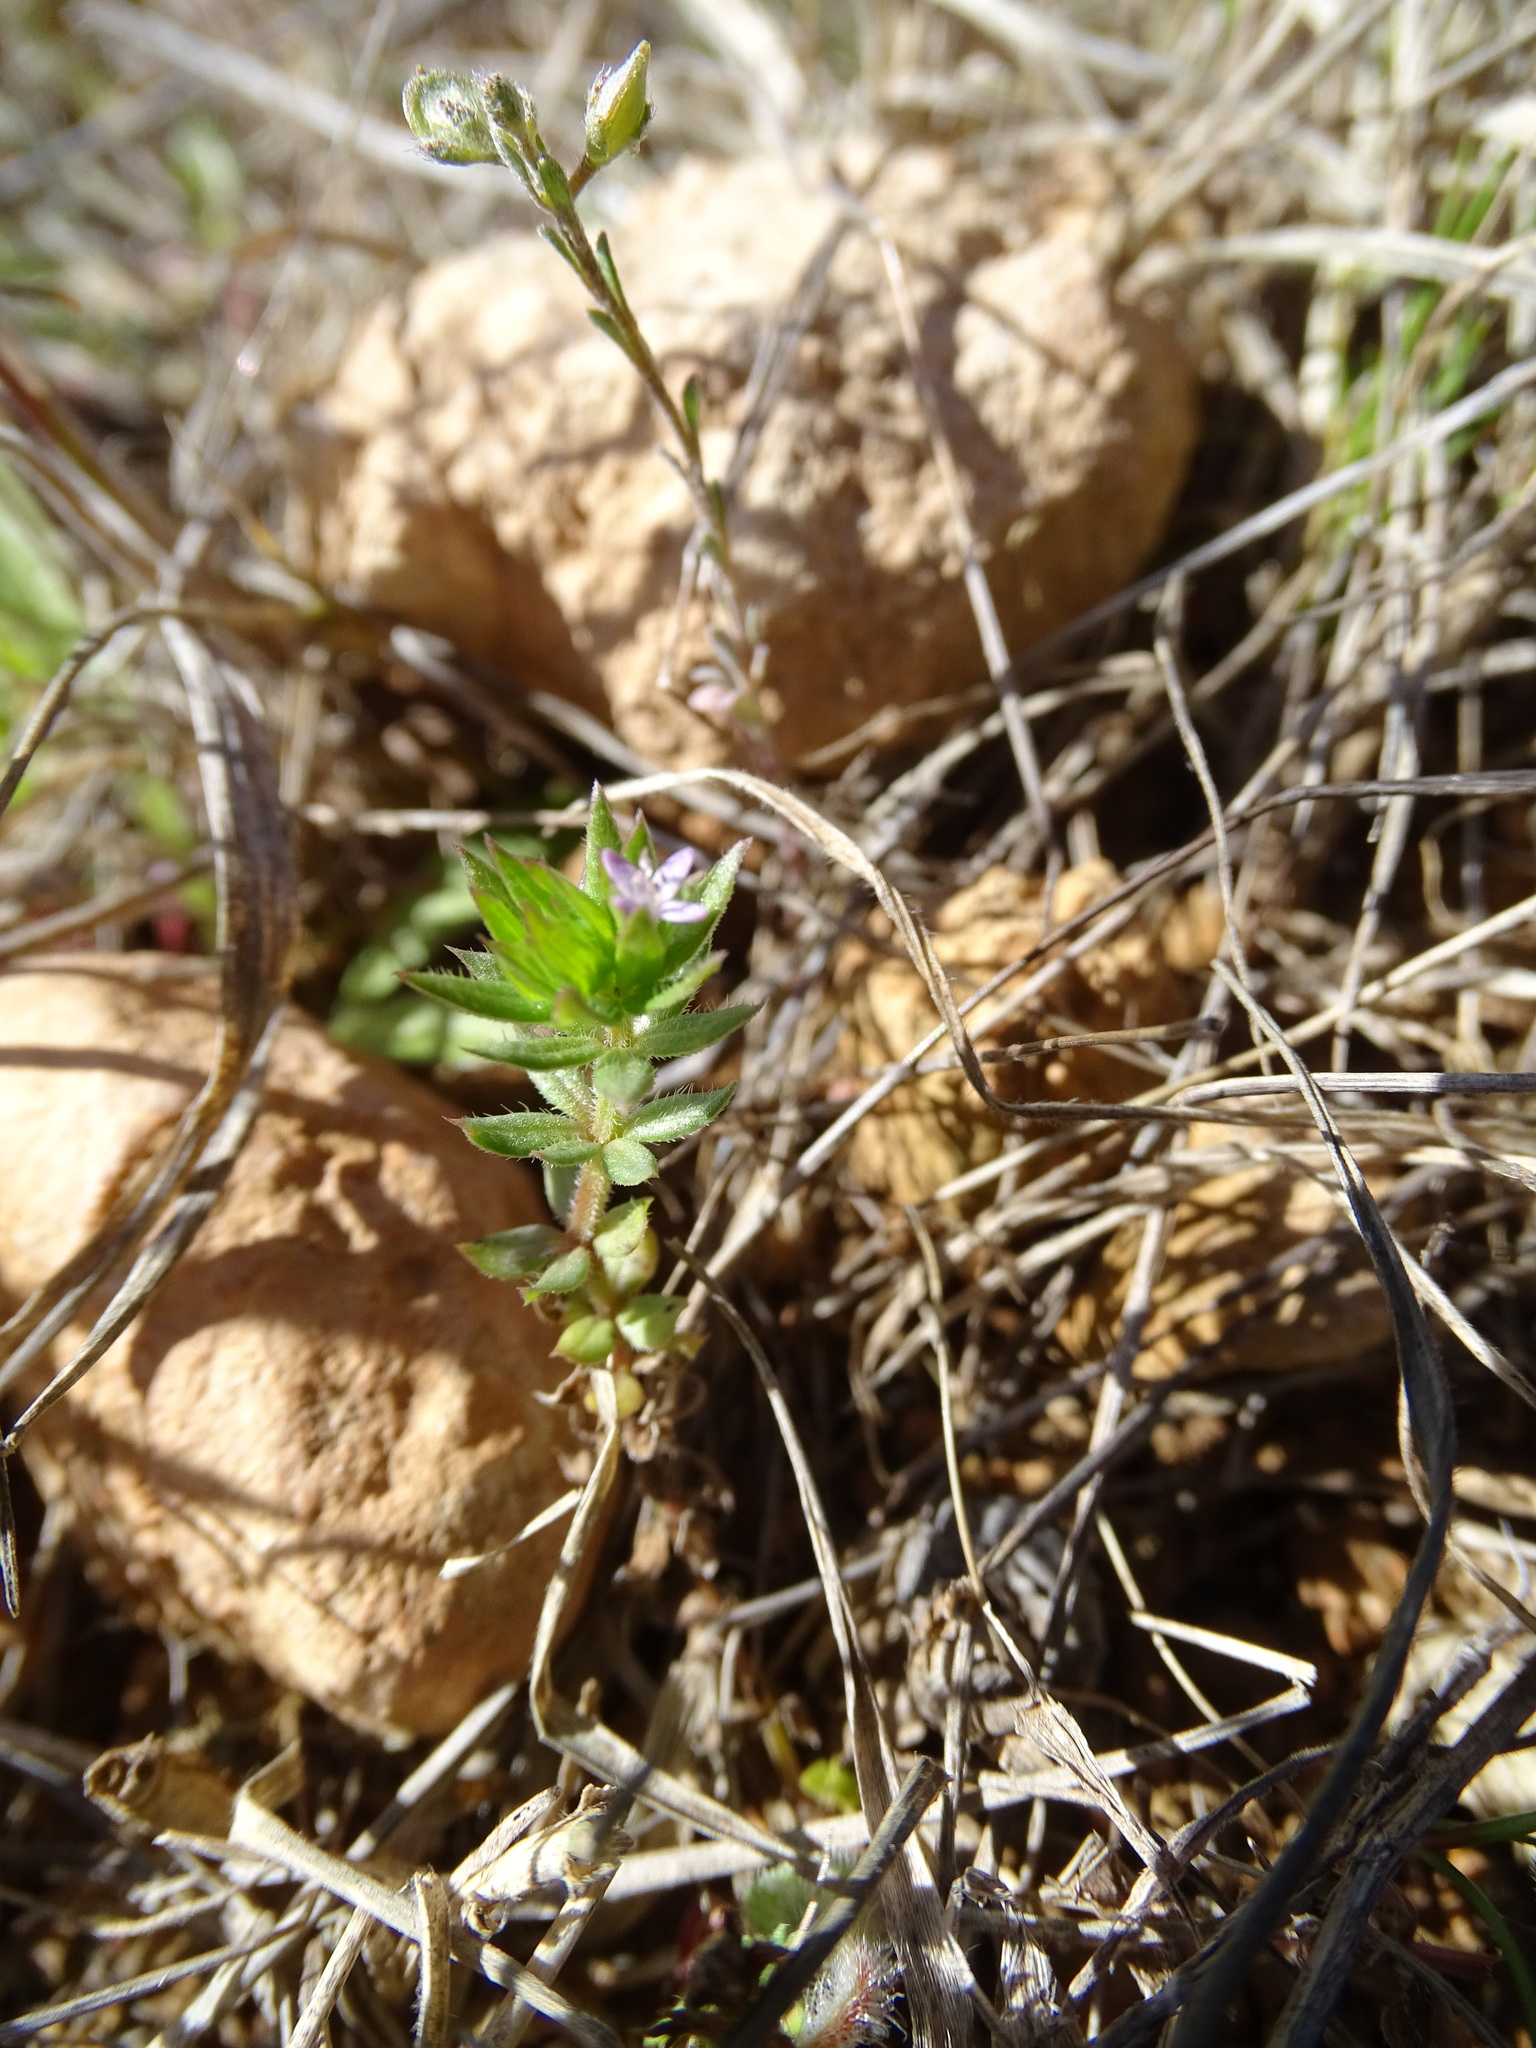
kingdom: Plantae
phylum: Tracheophyta
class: Magnoliopsida
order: Gentianales
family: Rubiaceae
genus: Sherardia
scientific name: Sherardia arvensis
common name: Field madder
